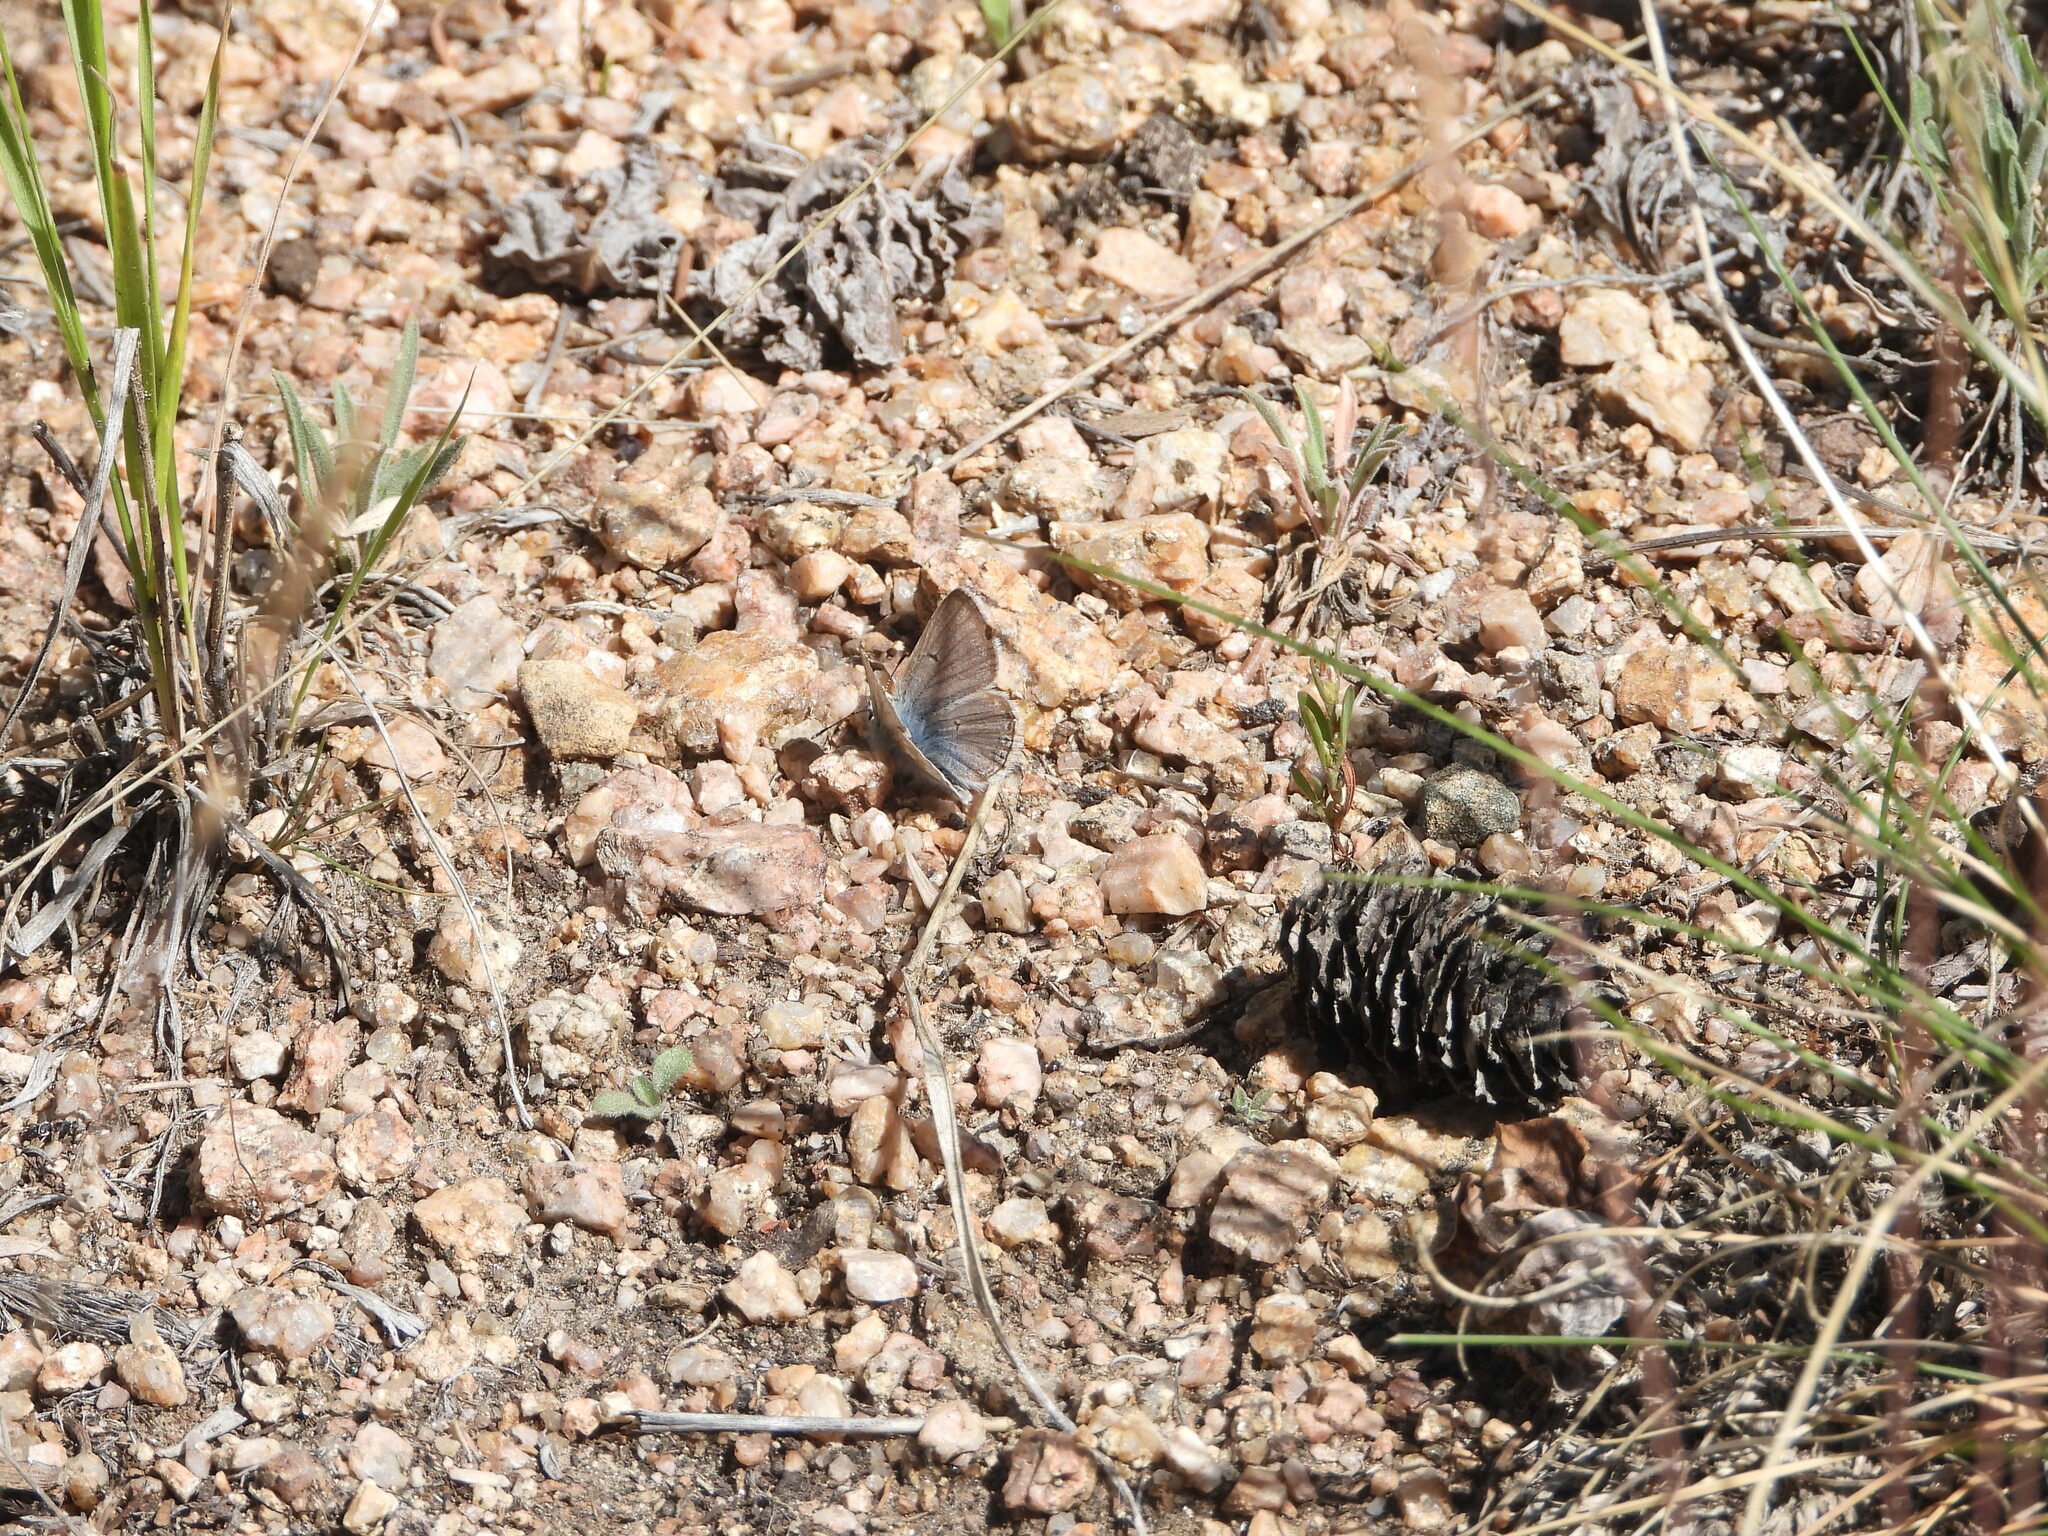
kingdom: Animalia
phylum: Arthropoda
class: Insecta
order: Lepidoptera
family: Lycaenidae
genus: Agriades
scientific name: Agriades glandon
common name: Glandon blue
